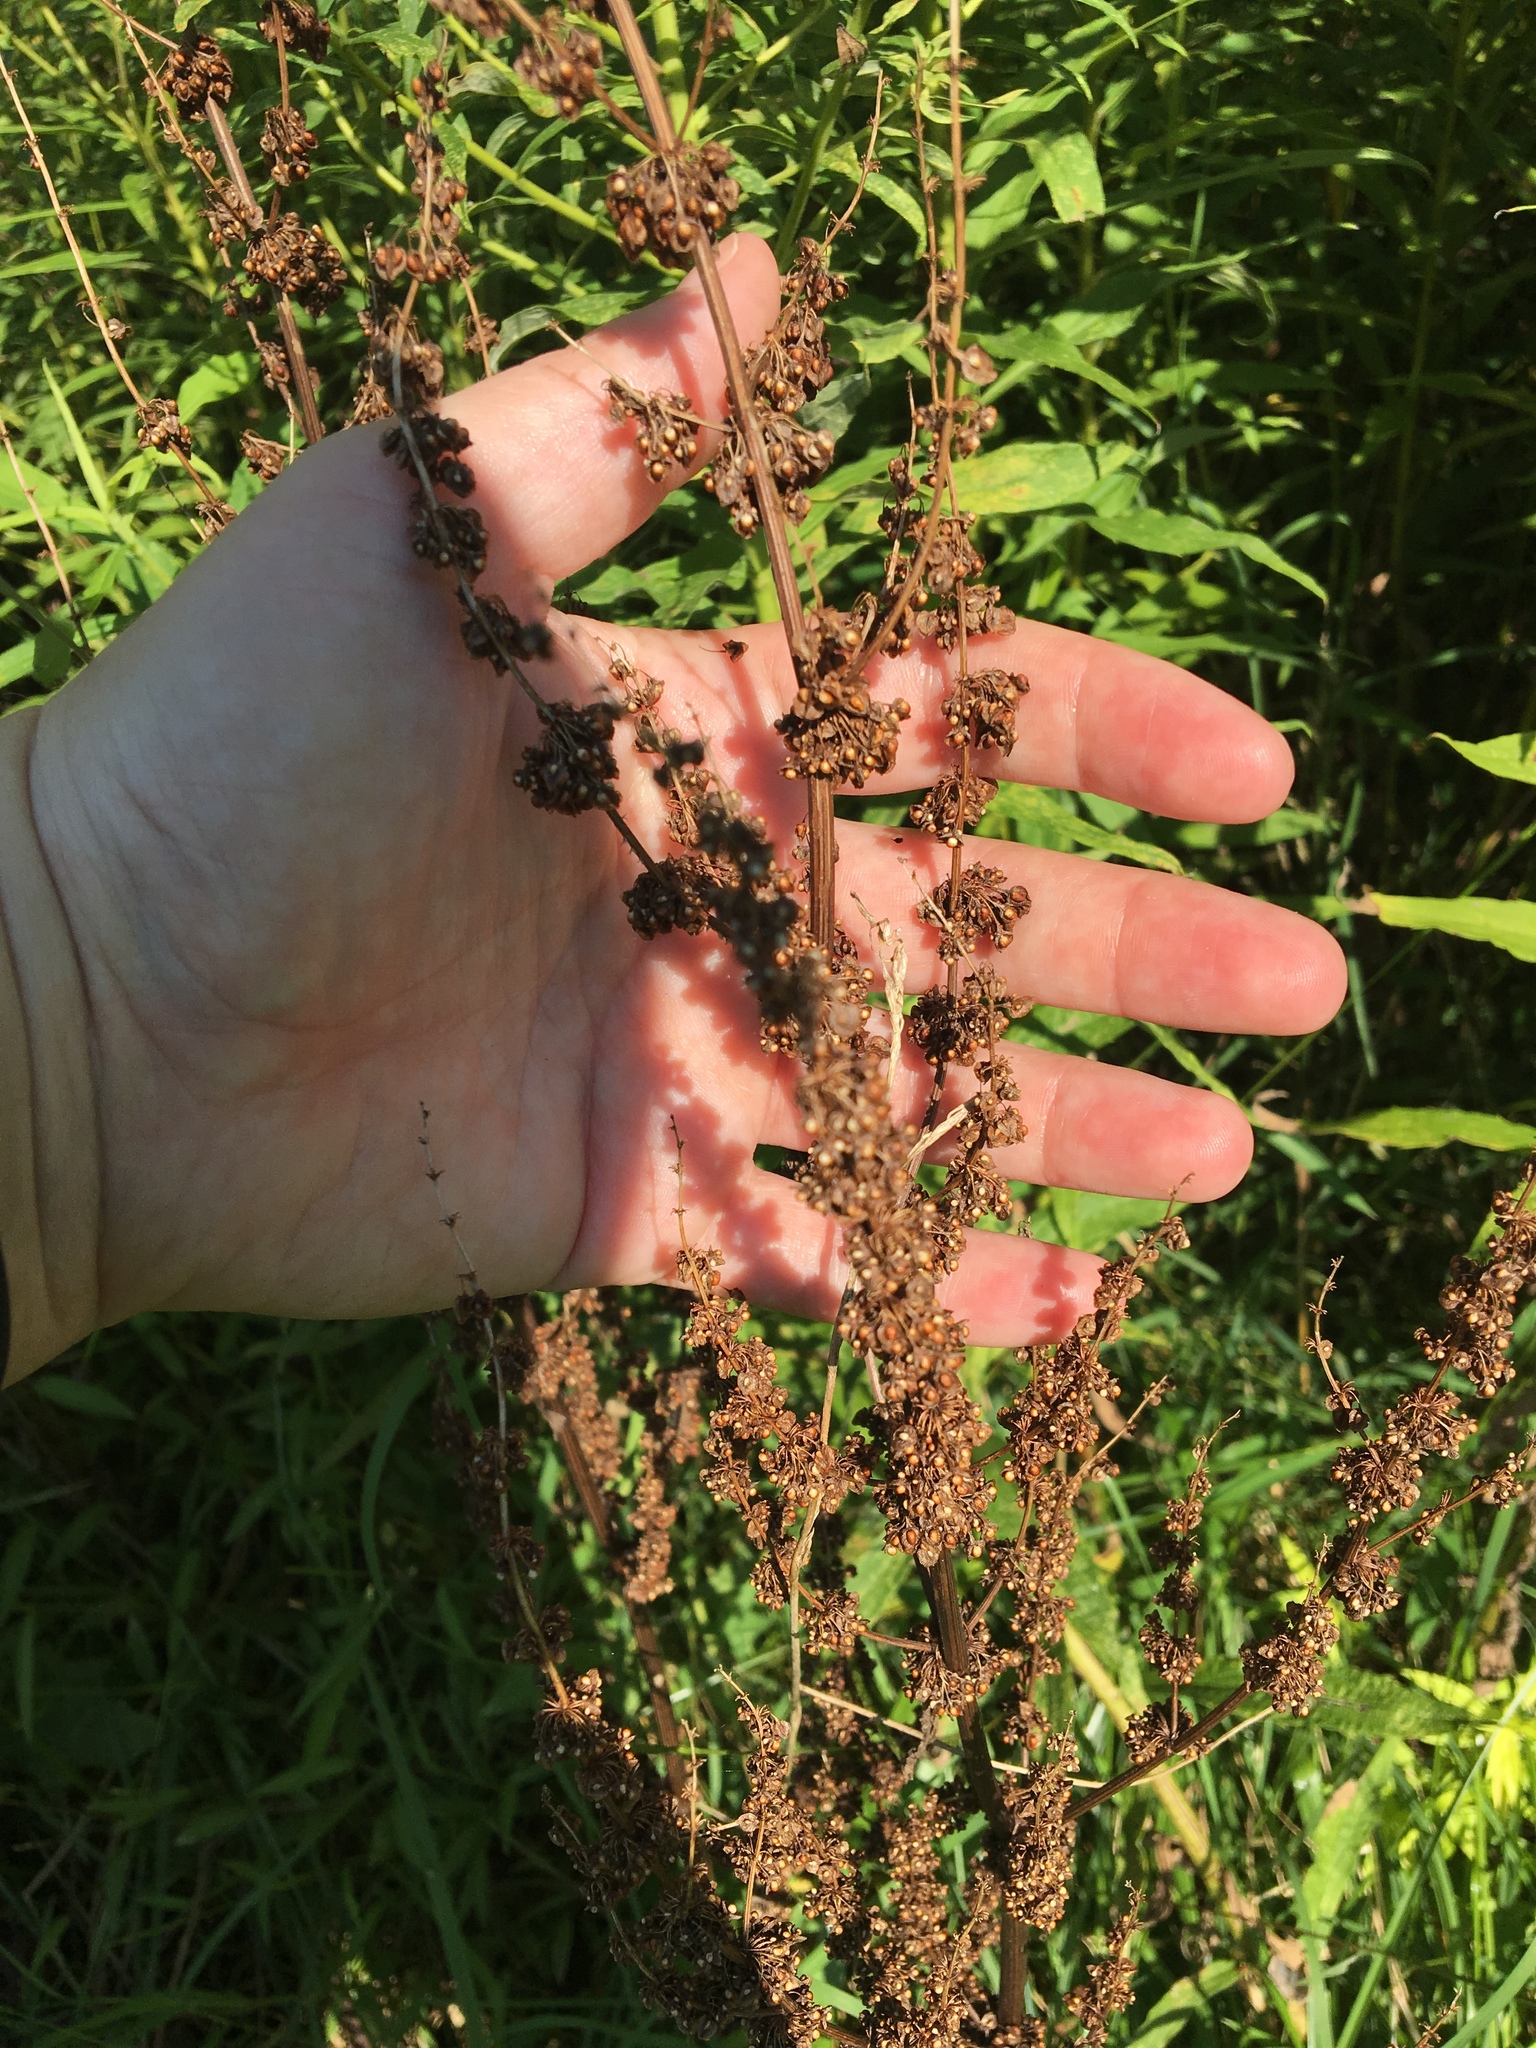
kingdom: Plantae
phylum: Tracheophyta
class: Magnoliopsida
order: Caryophyllales
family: Polygonaceae
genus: Rumex
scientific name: Rumex crispus
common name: Curled dock
